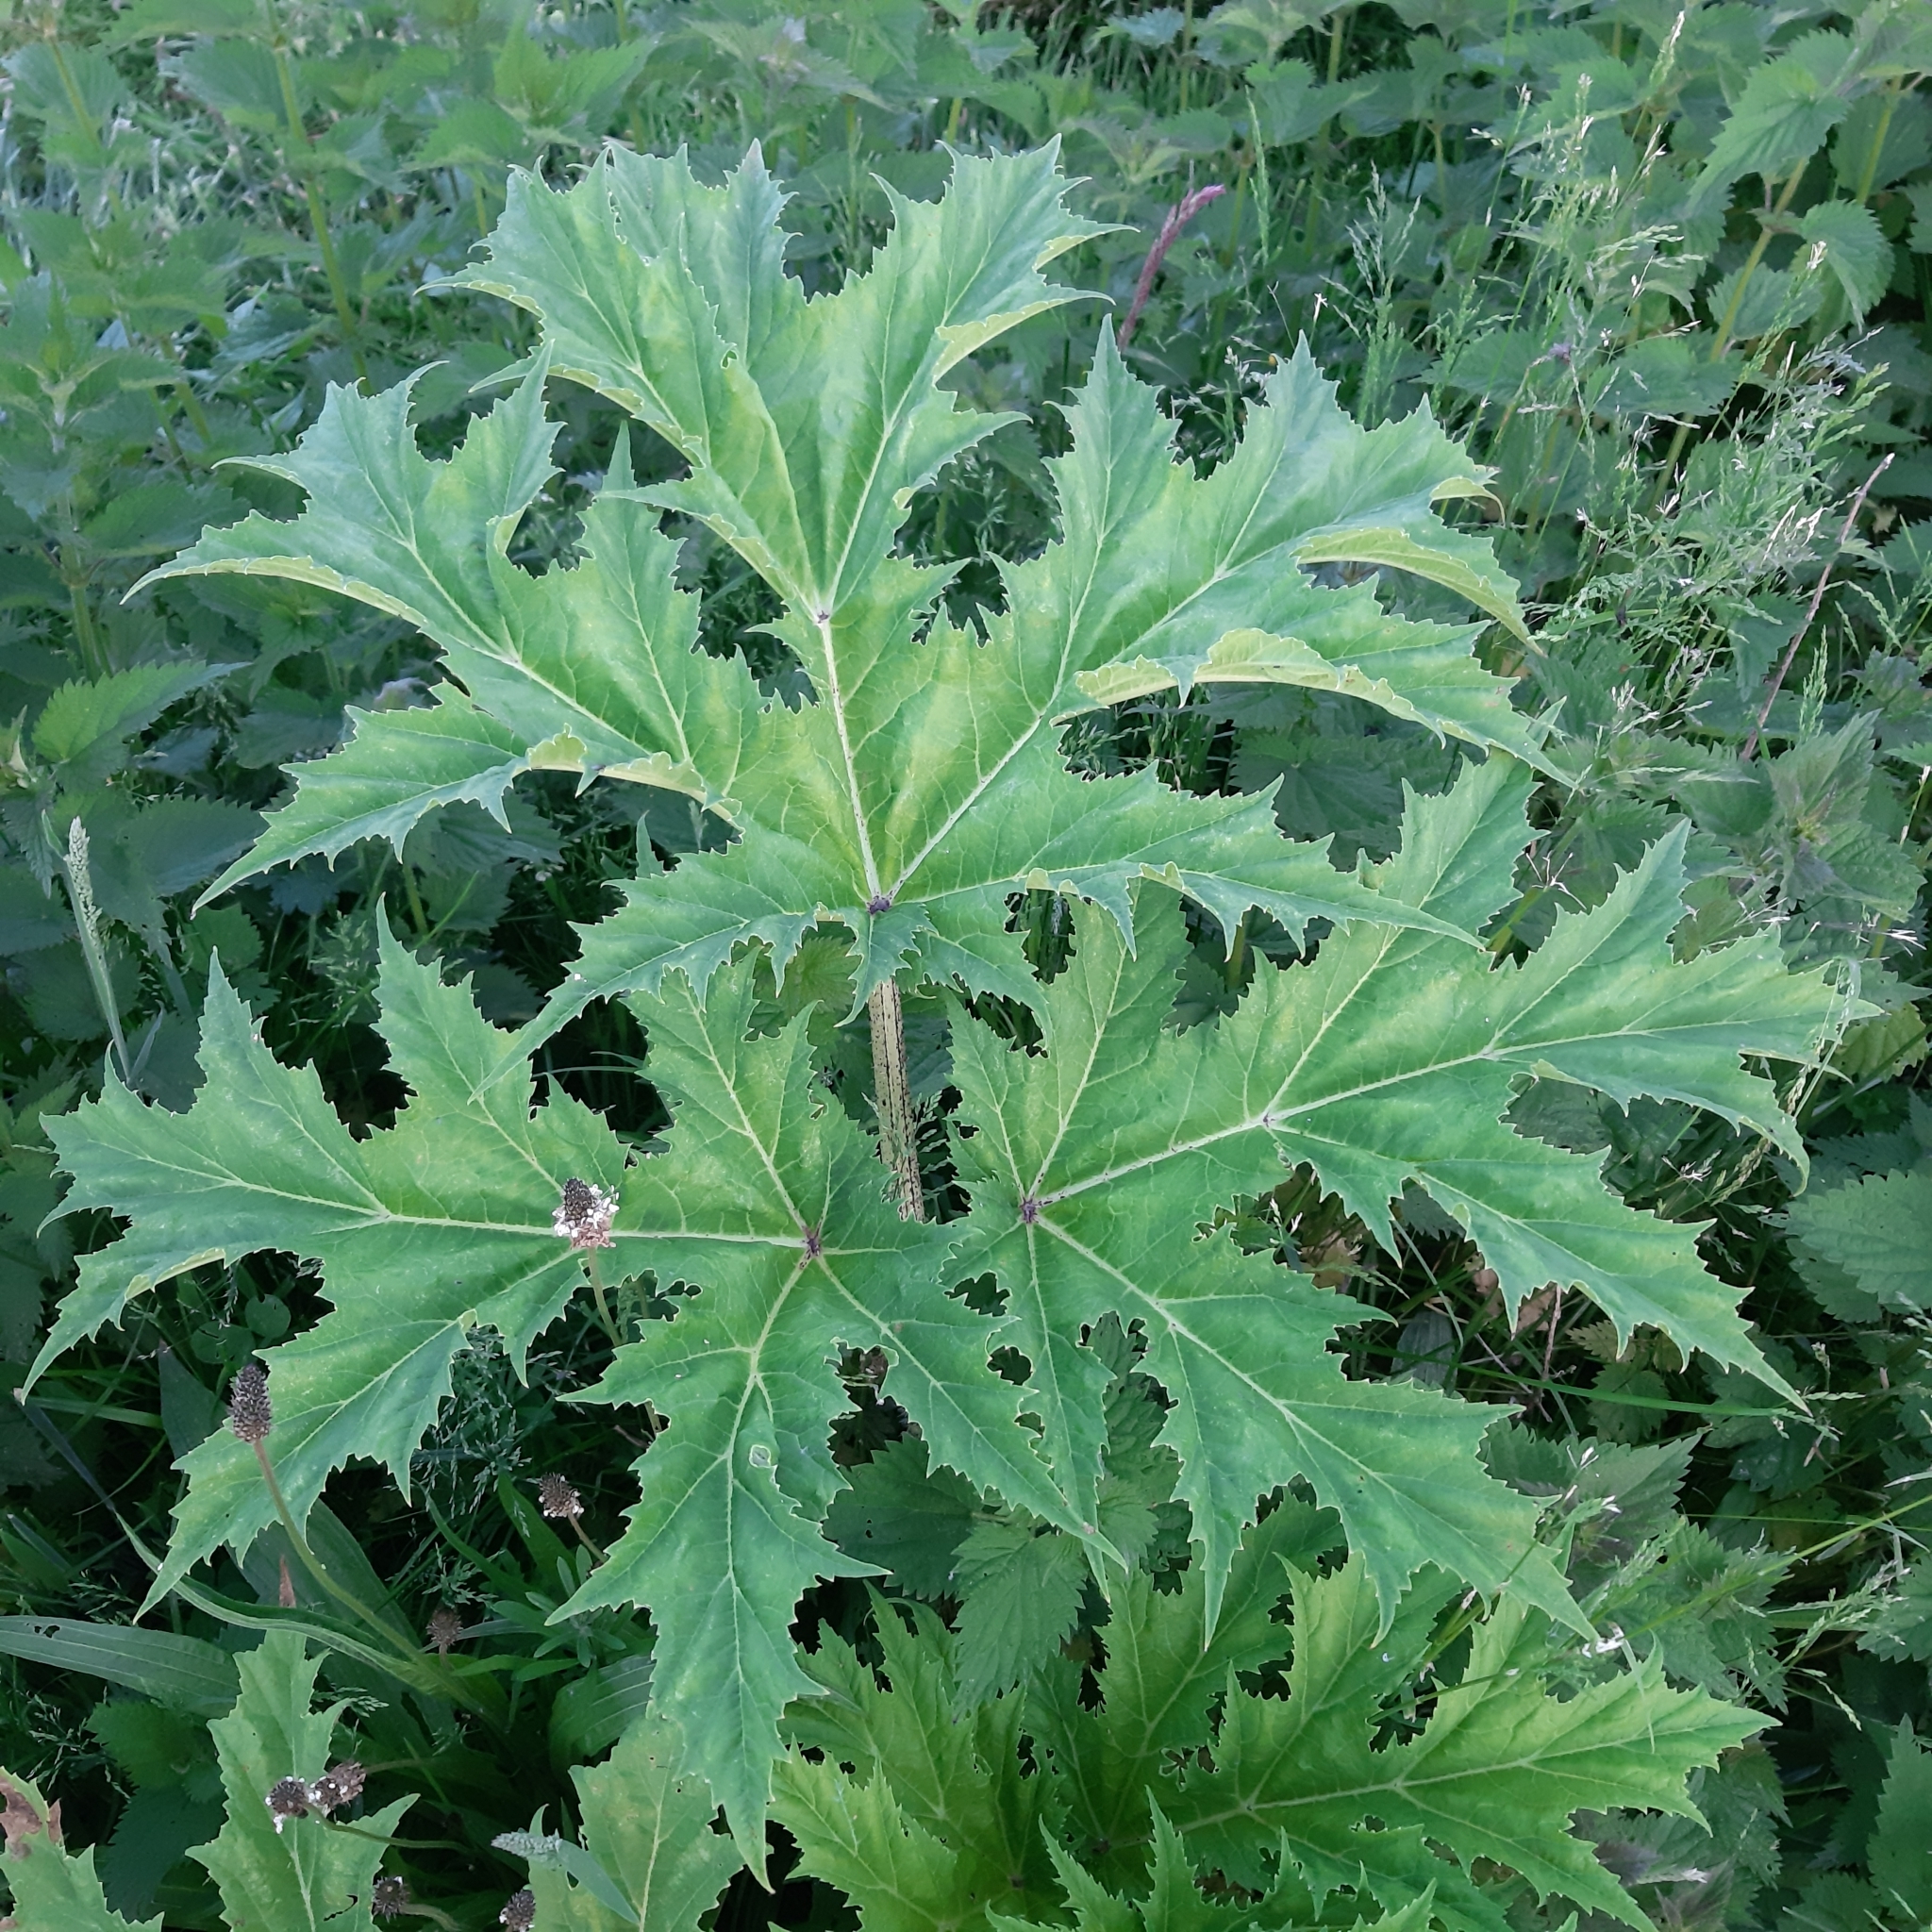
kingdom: Plantae
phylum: Tracheophyta
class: Magnoliopsida
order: Apiales
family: Apiaceae
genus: Heracleum
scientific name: Heracleum mantegazzianum
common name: Giant hogweed
